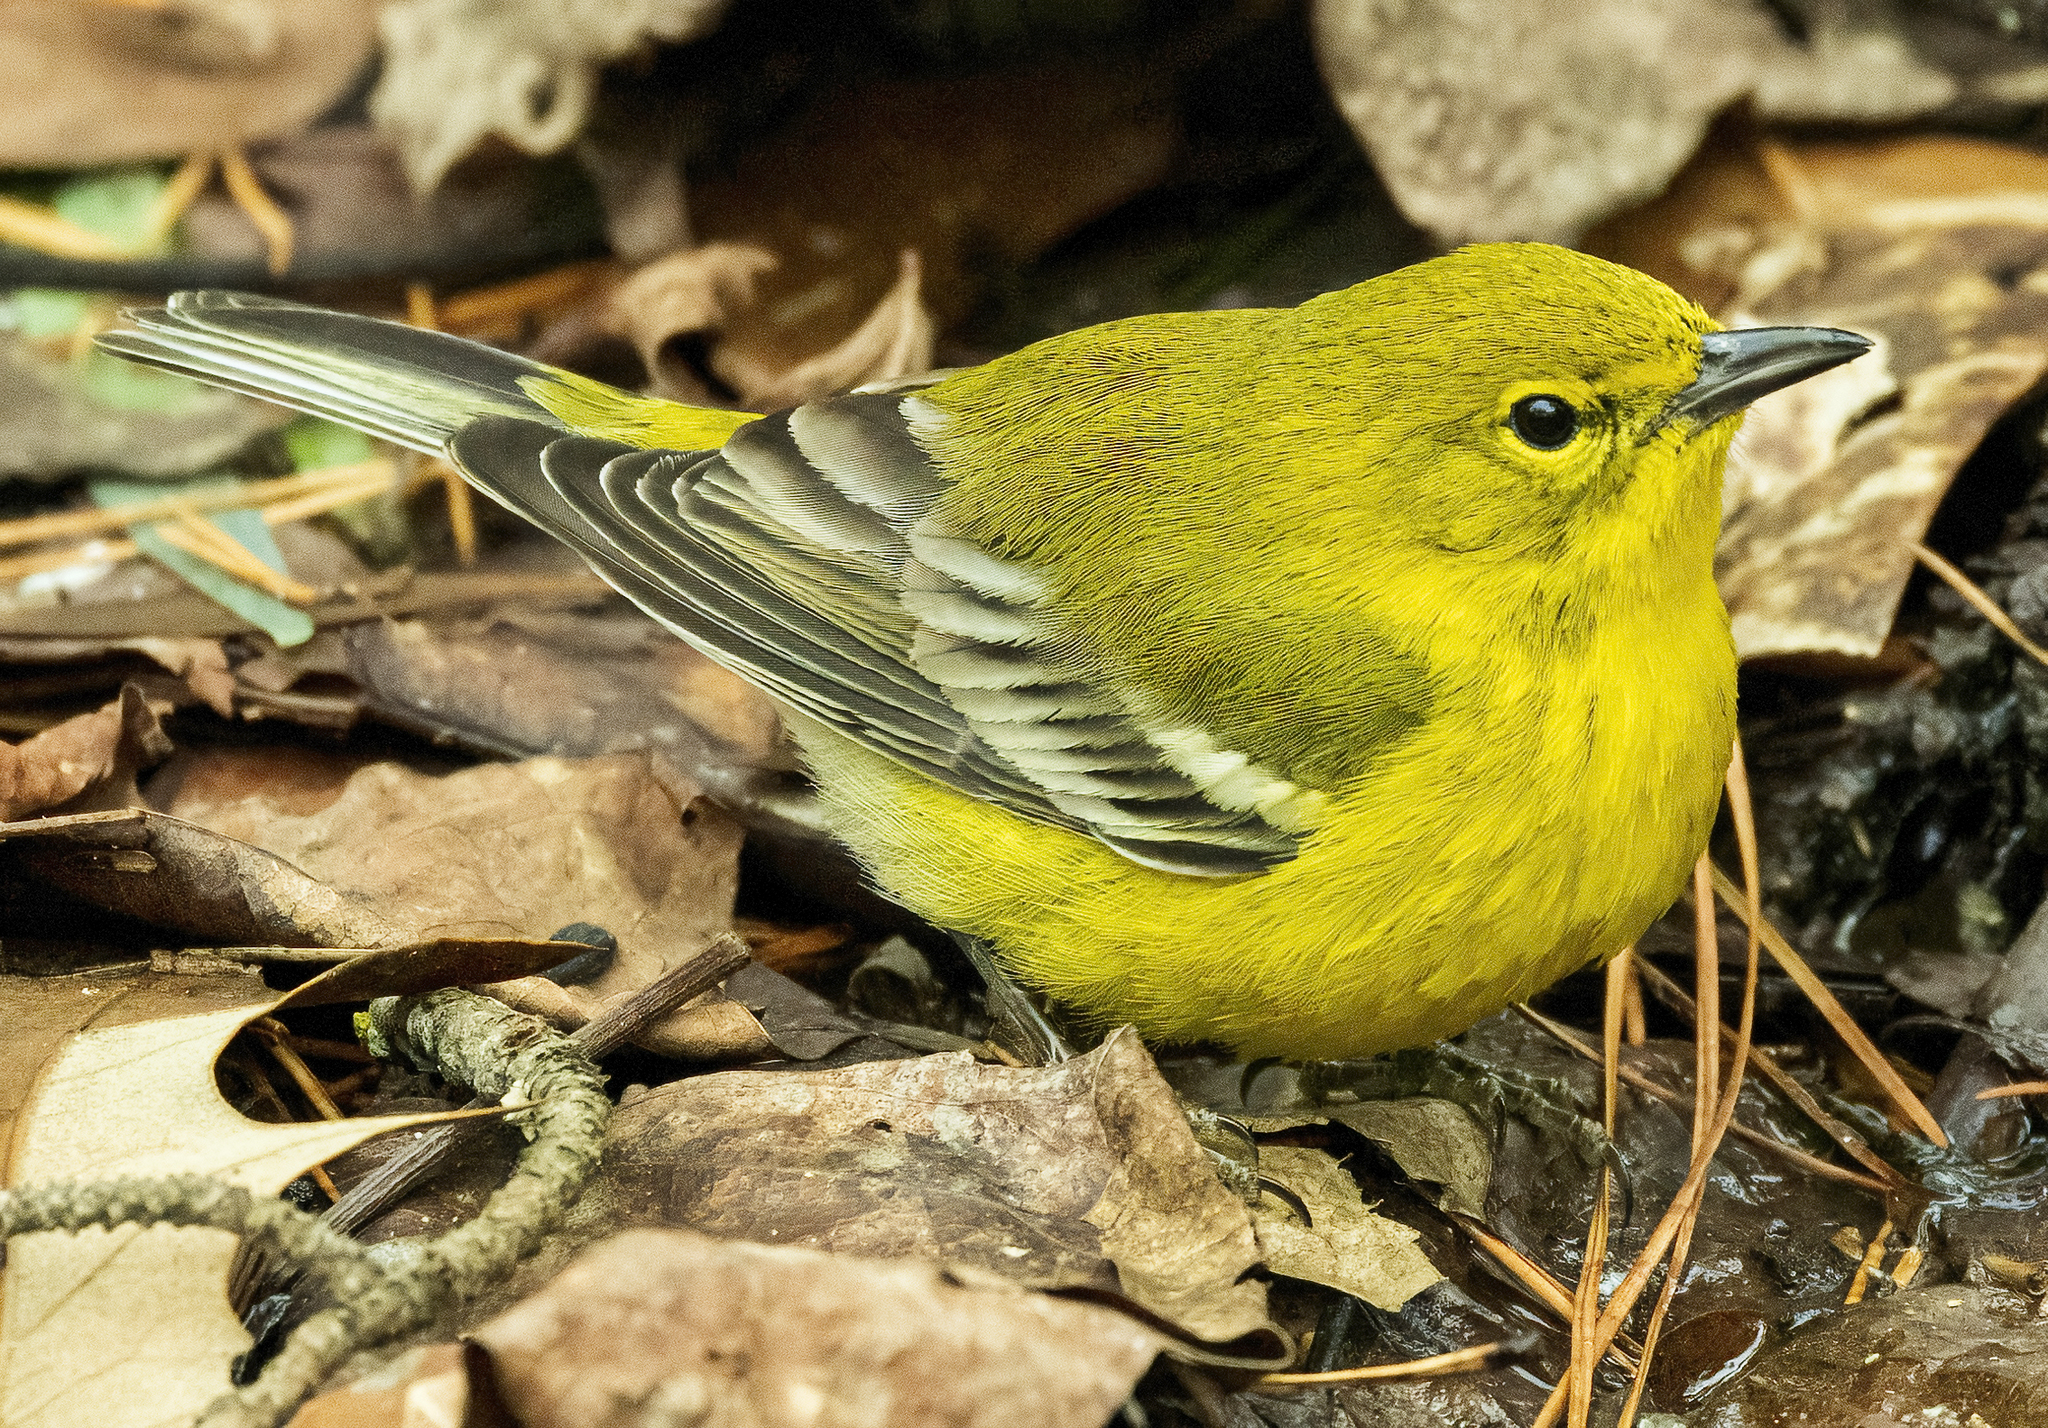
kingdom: Animalia
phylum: Chordata
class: Aves
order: Passeriformes
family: Parulidae
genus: Setophaga
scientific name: Setophaga pinus
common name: Pine warbler
